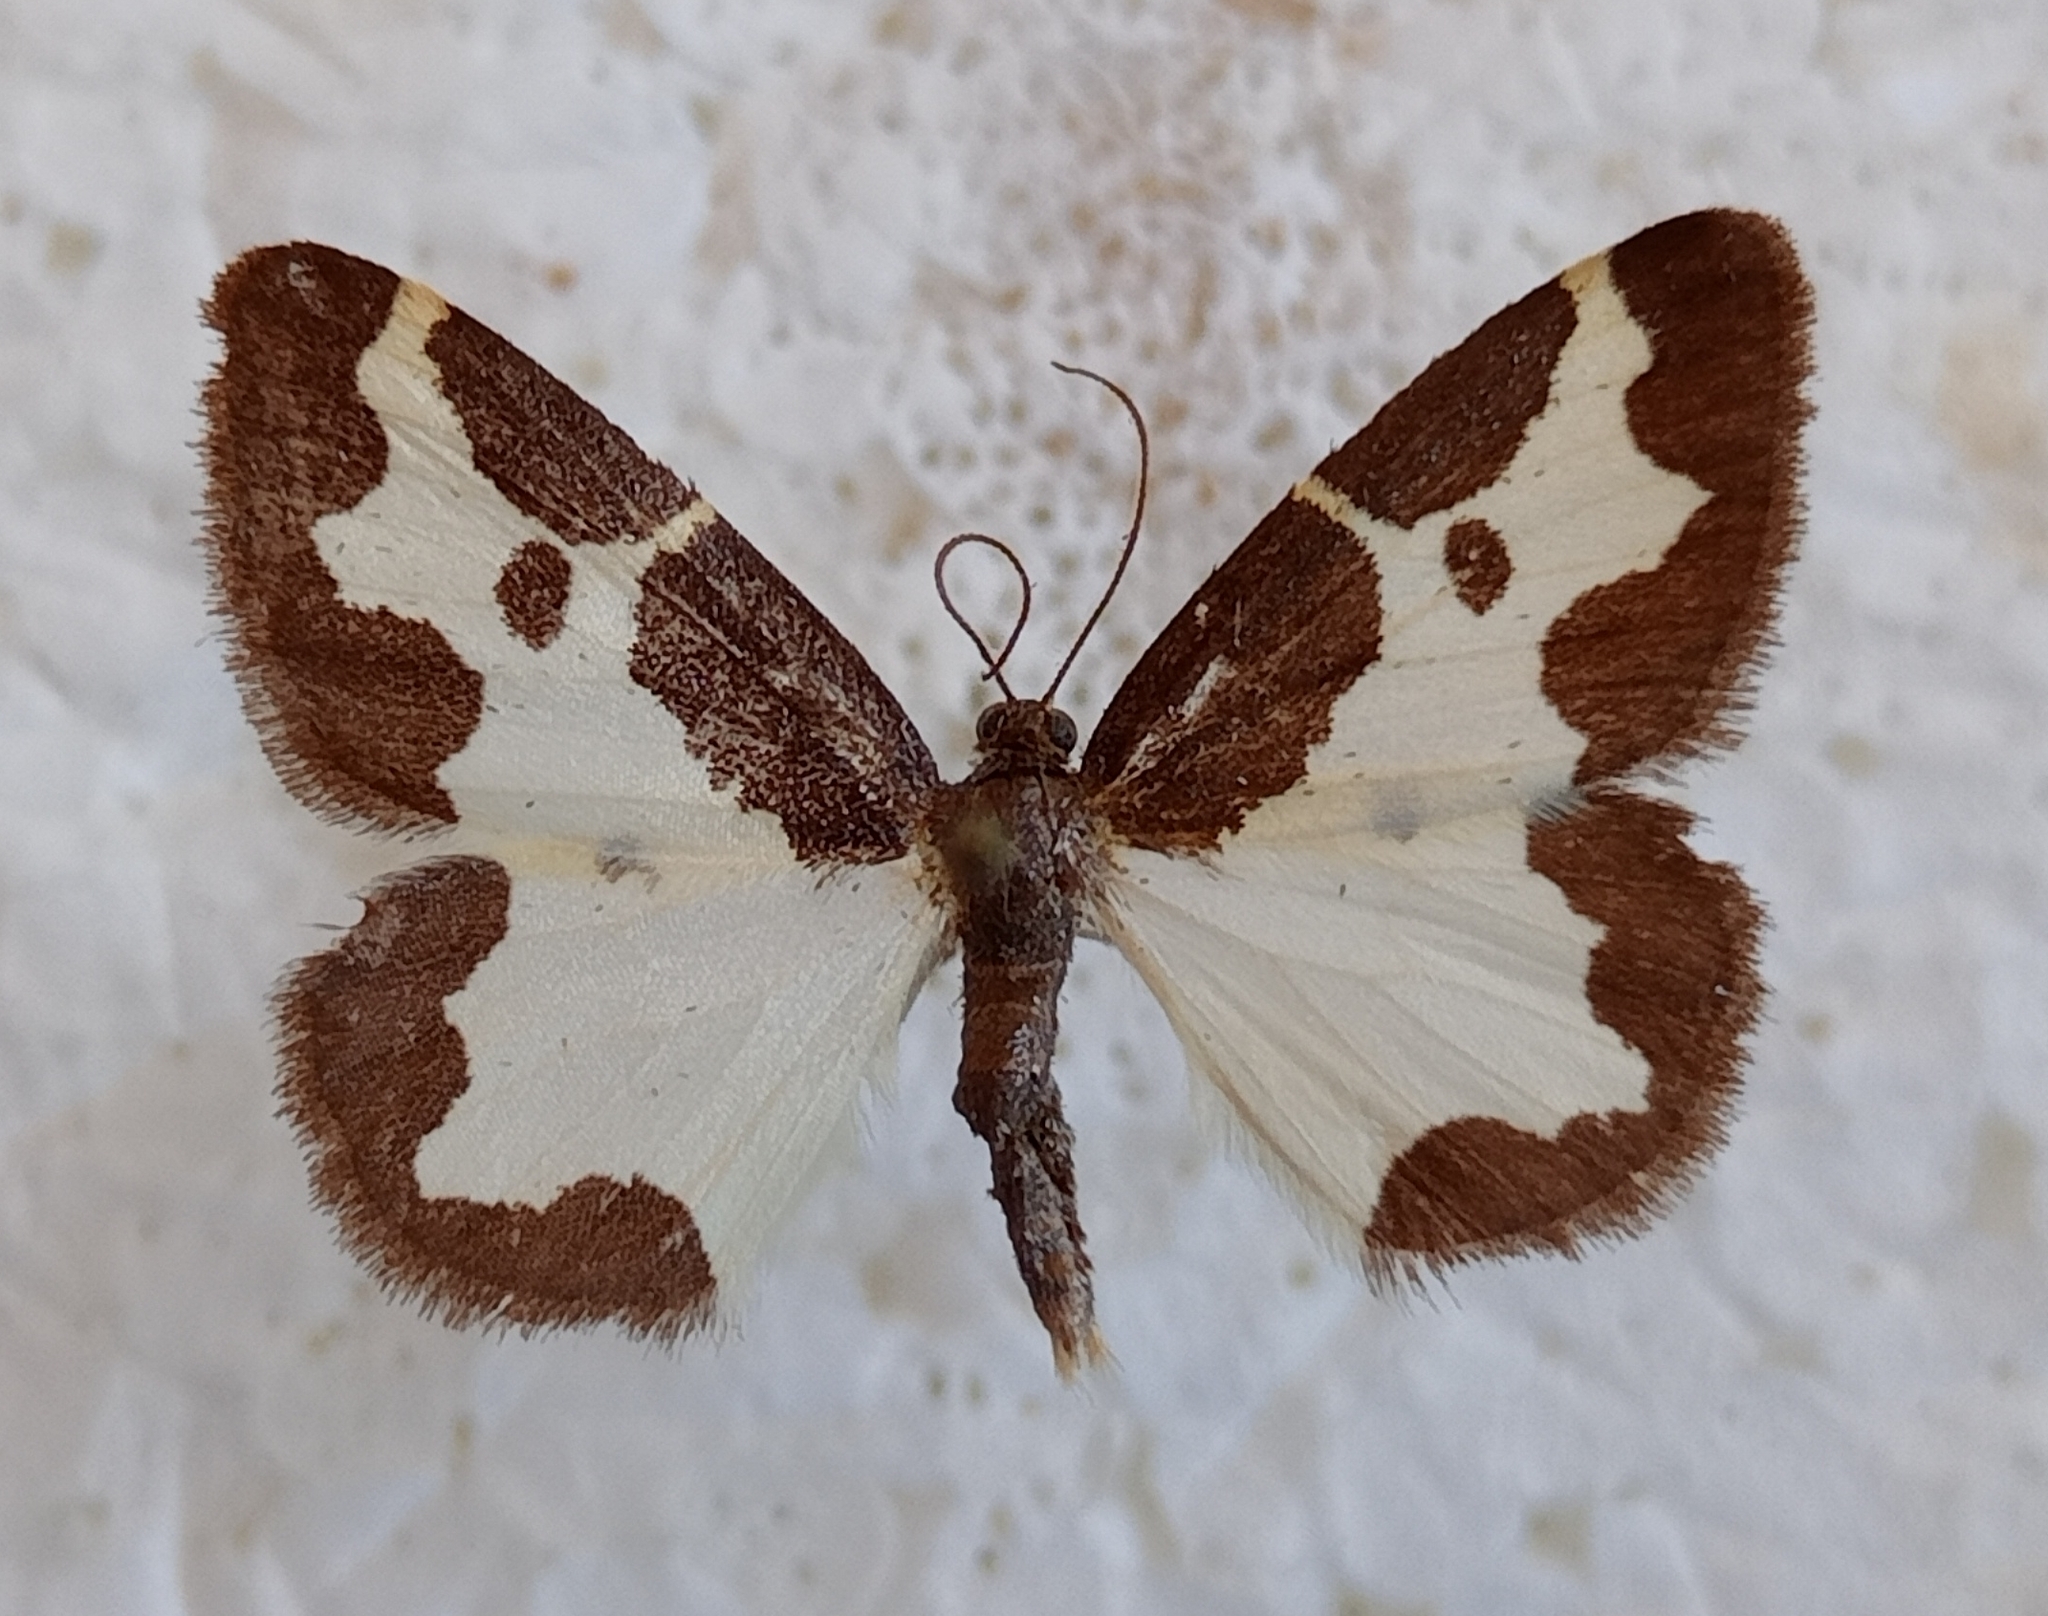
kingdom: Animalia
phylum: Arthropoda
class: Insecta
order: Lepidoptera
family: Geometridae
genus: Lomaspilis
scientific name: Lomaspilis marginata
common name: Clouded border
